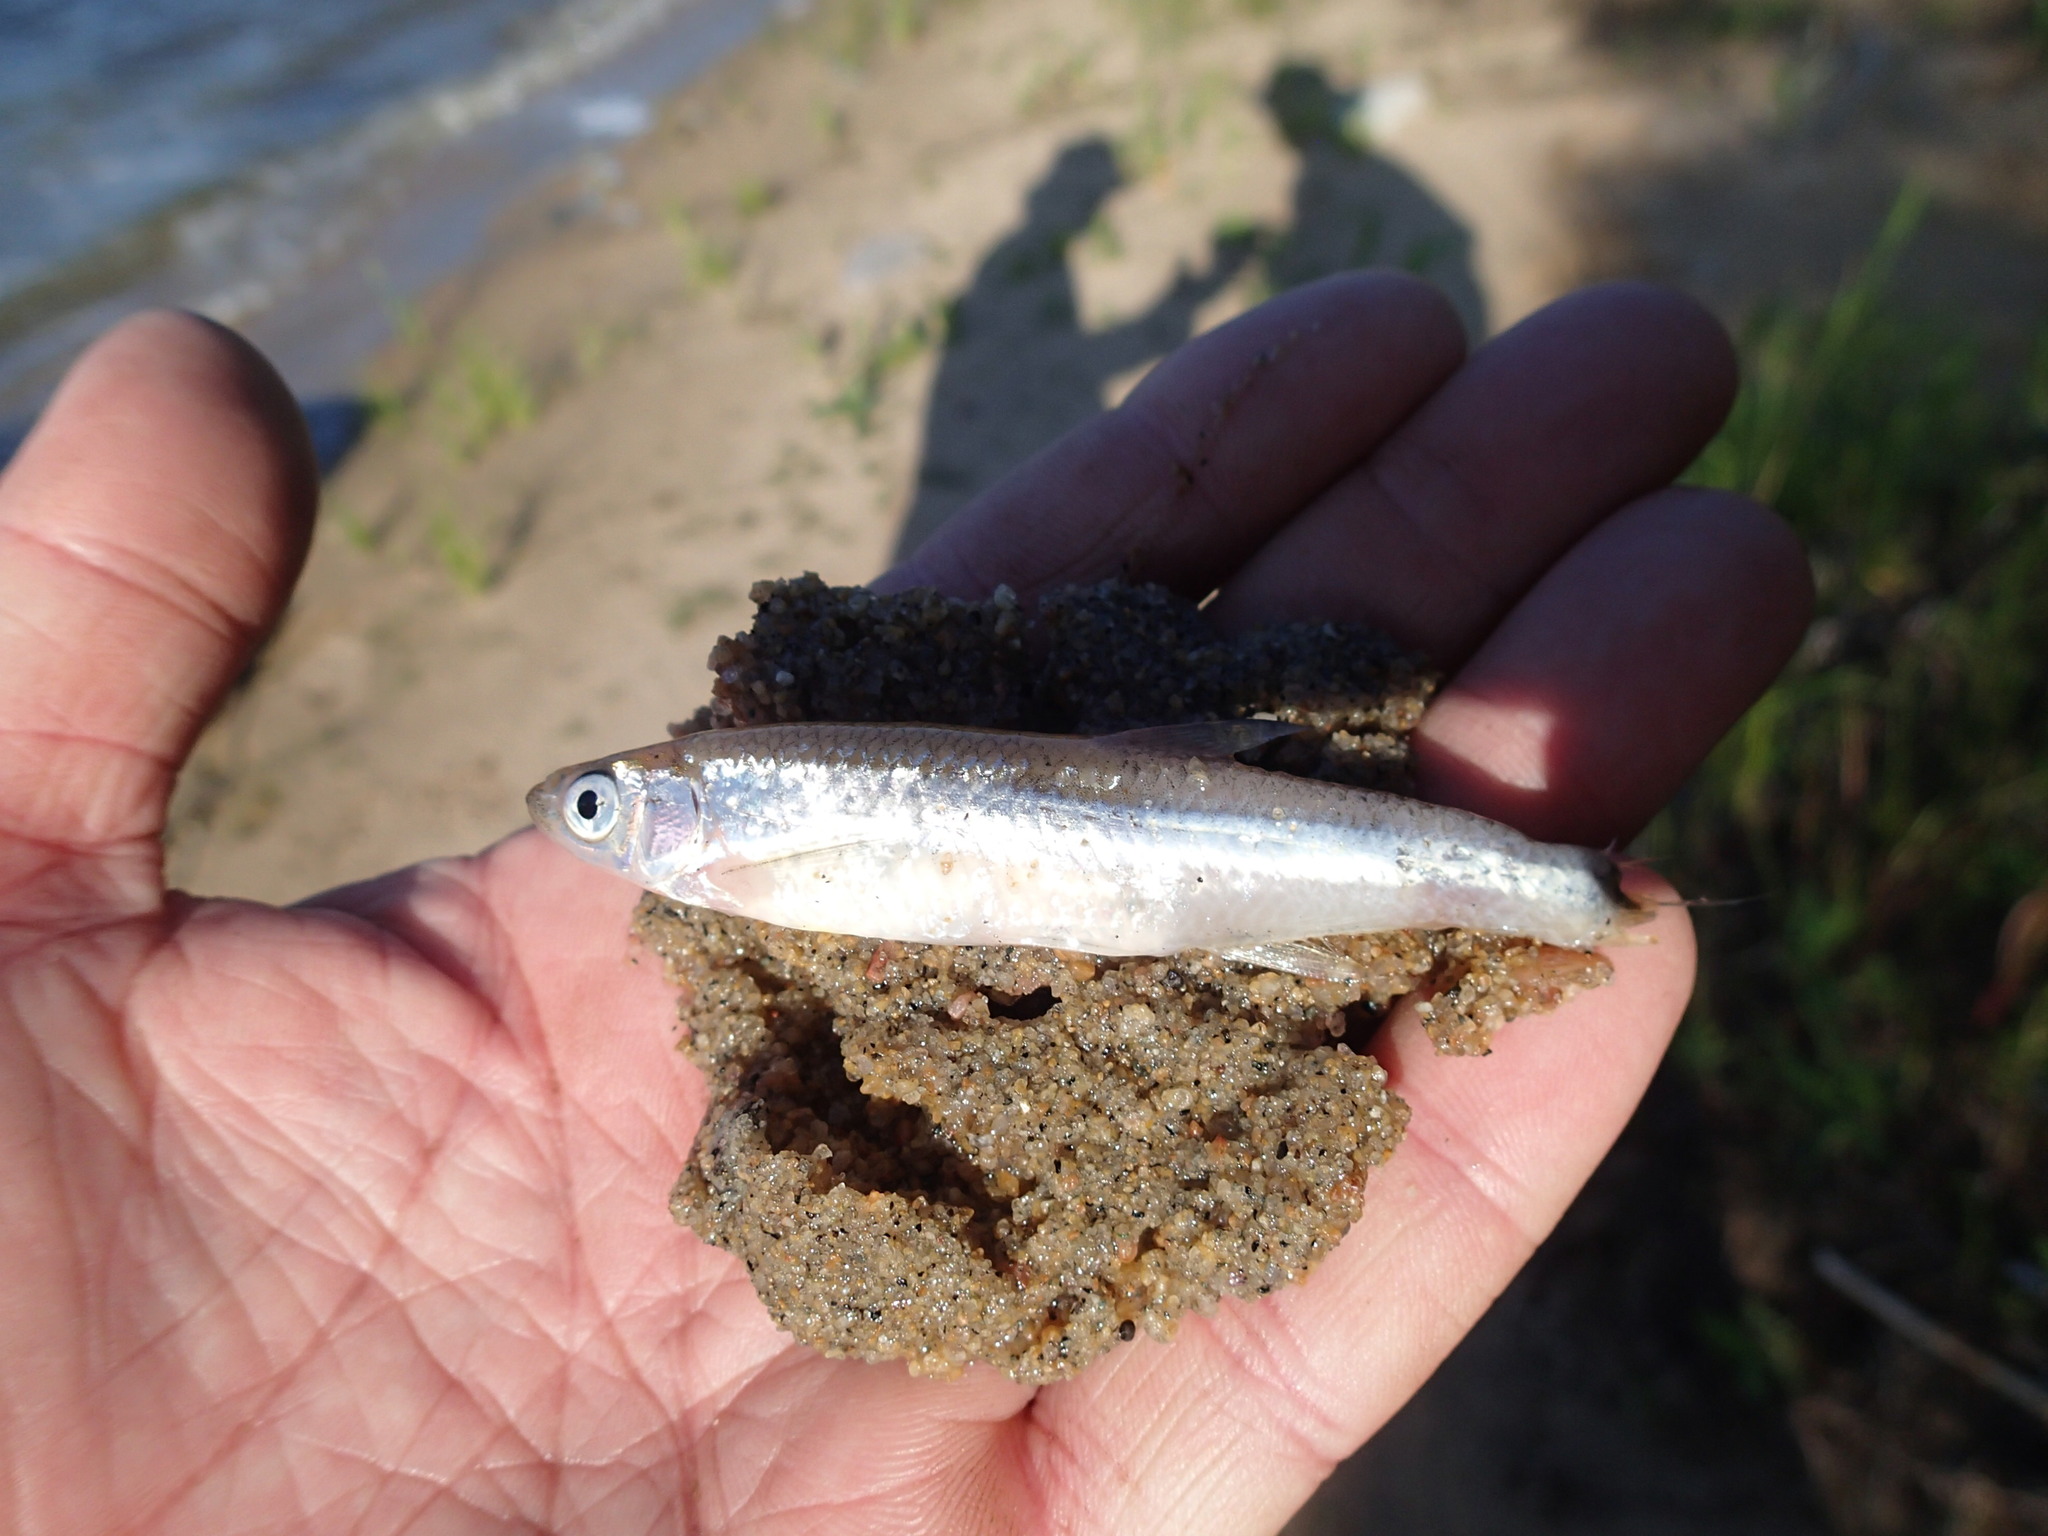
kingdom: Animalia
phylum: Chordata
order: Cypriniformes
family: Cyprinidae
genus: Notropis
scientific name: Notropis atherinoides
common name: Emerald shiner
